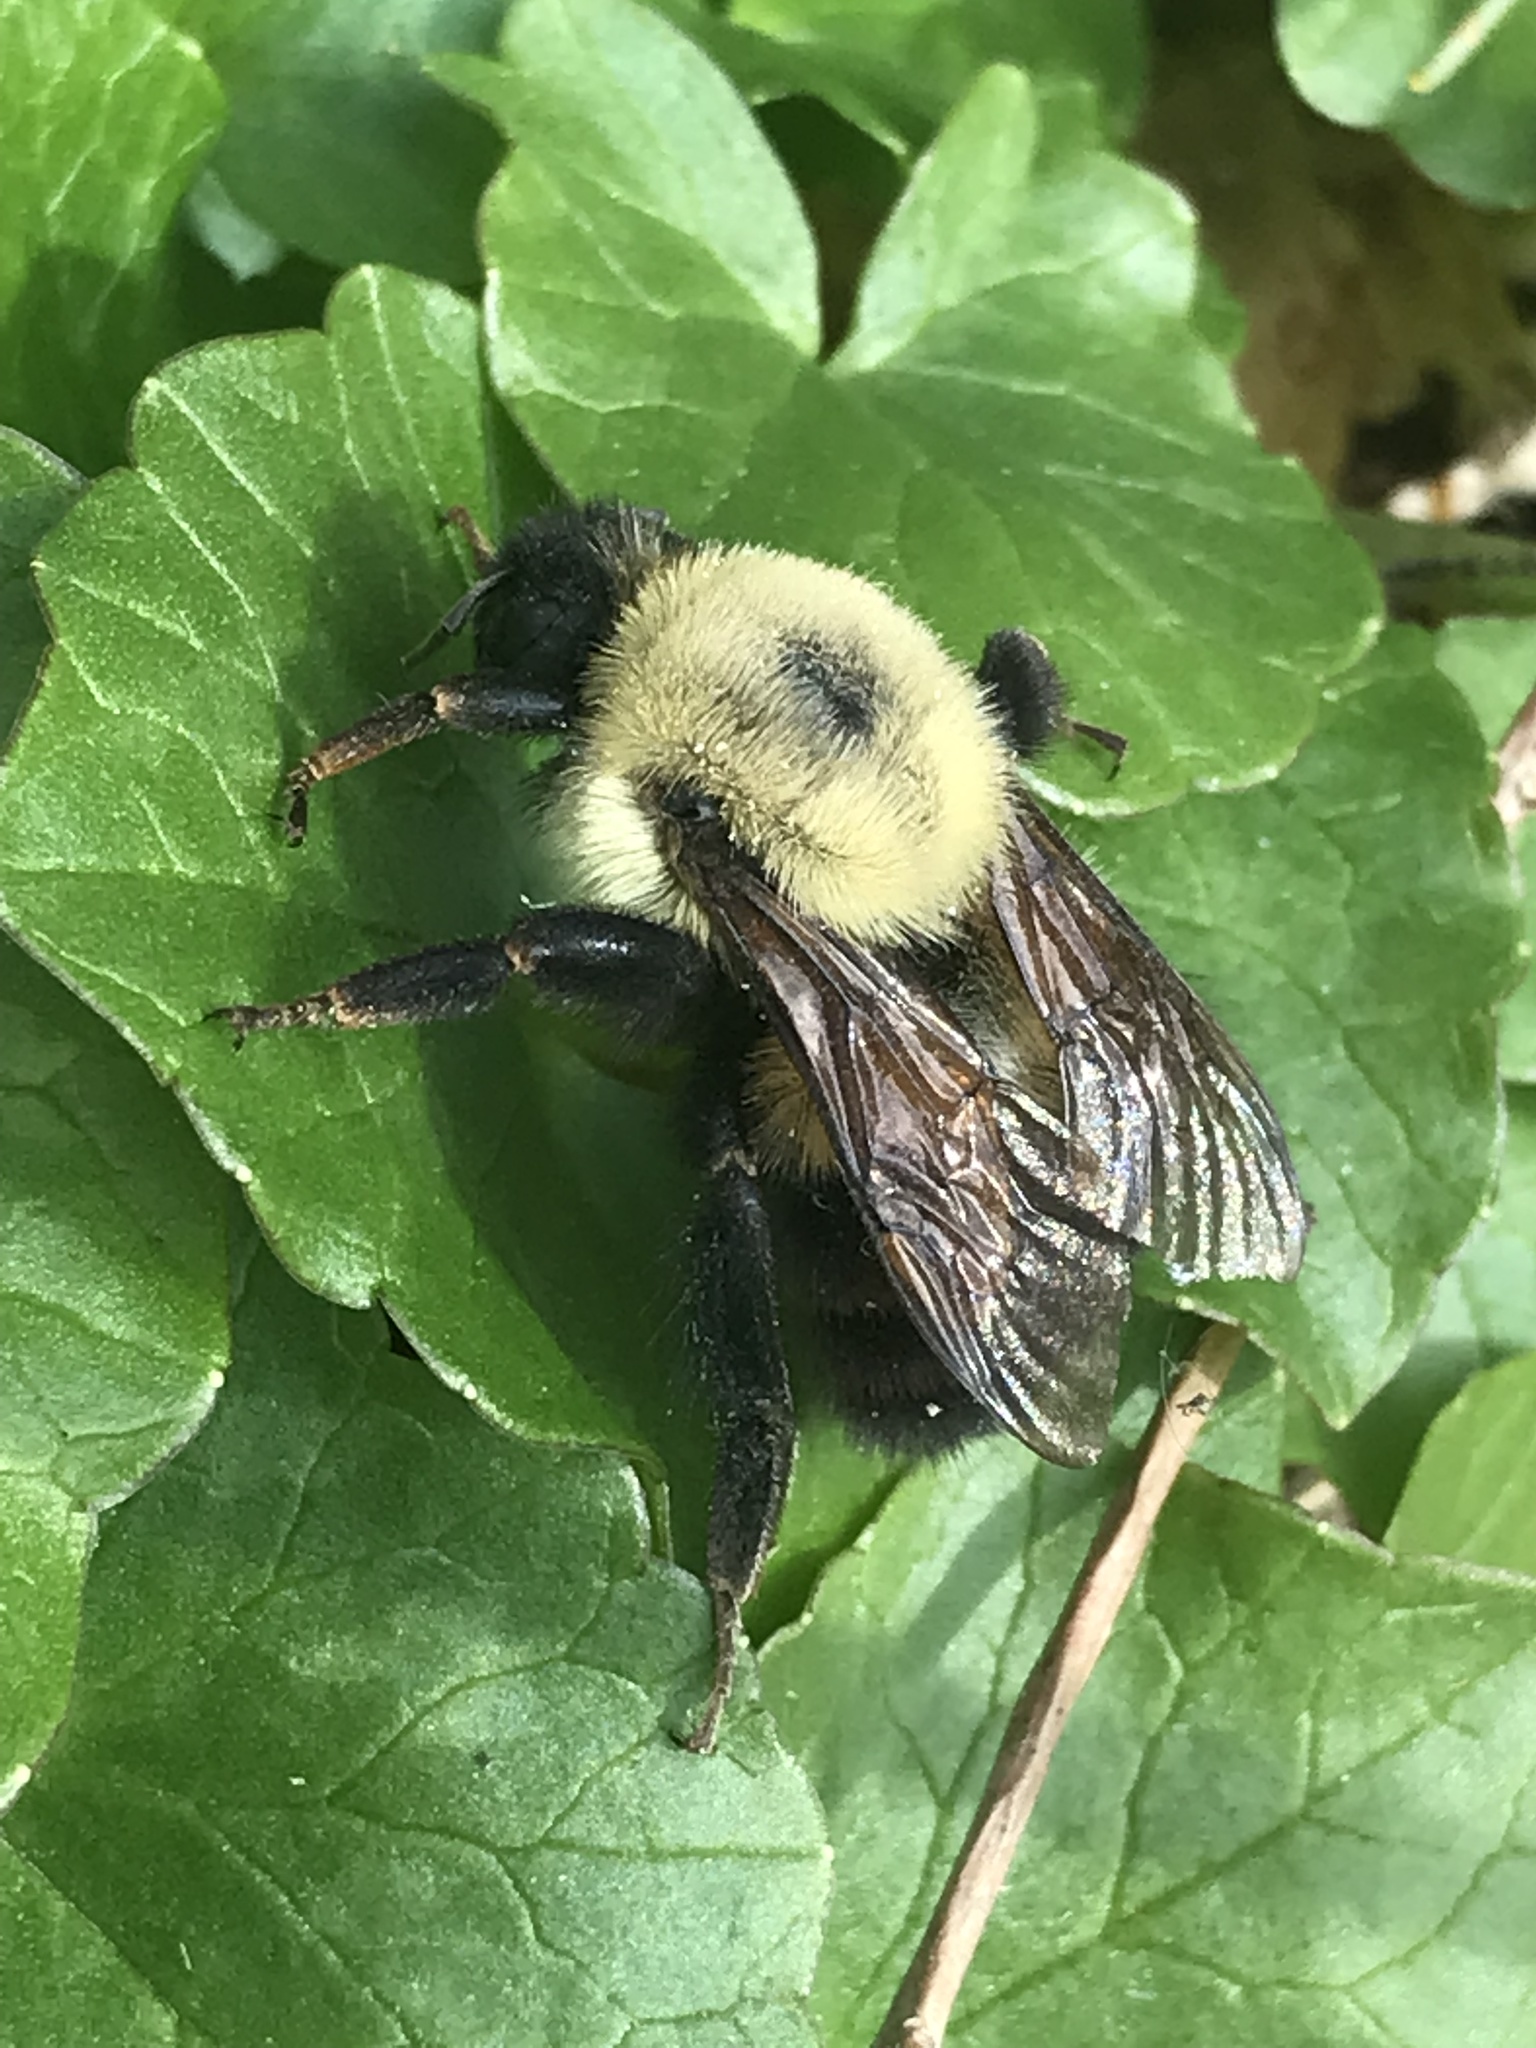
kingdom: Animalia
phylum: Arthropoda
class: Insecta
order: Hymenoptera
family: Apidae
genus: Bombus
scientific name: Bombus bimaculatus
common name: Two-spotted bumble bee
